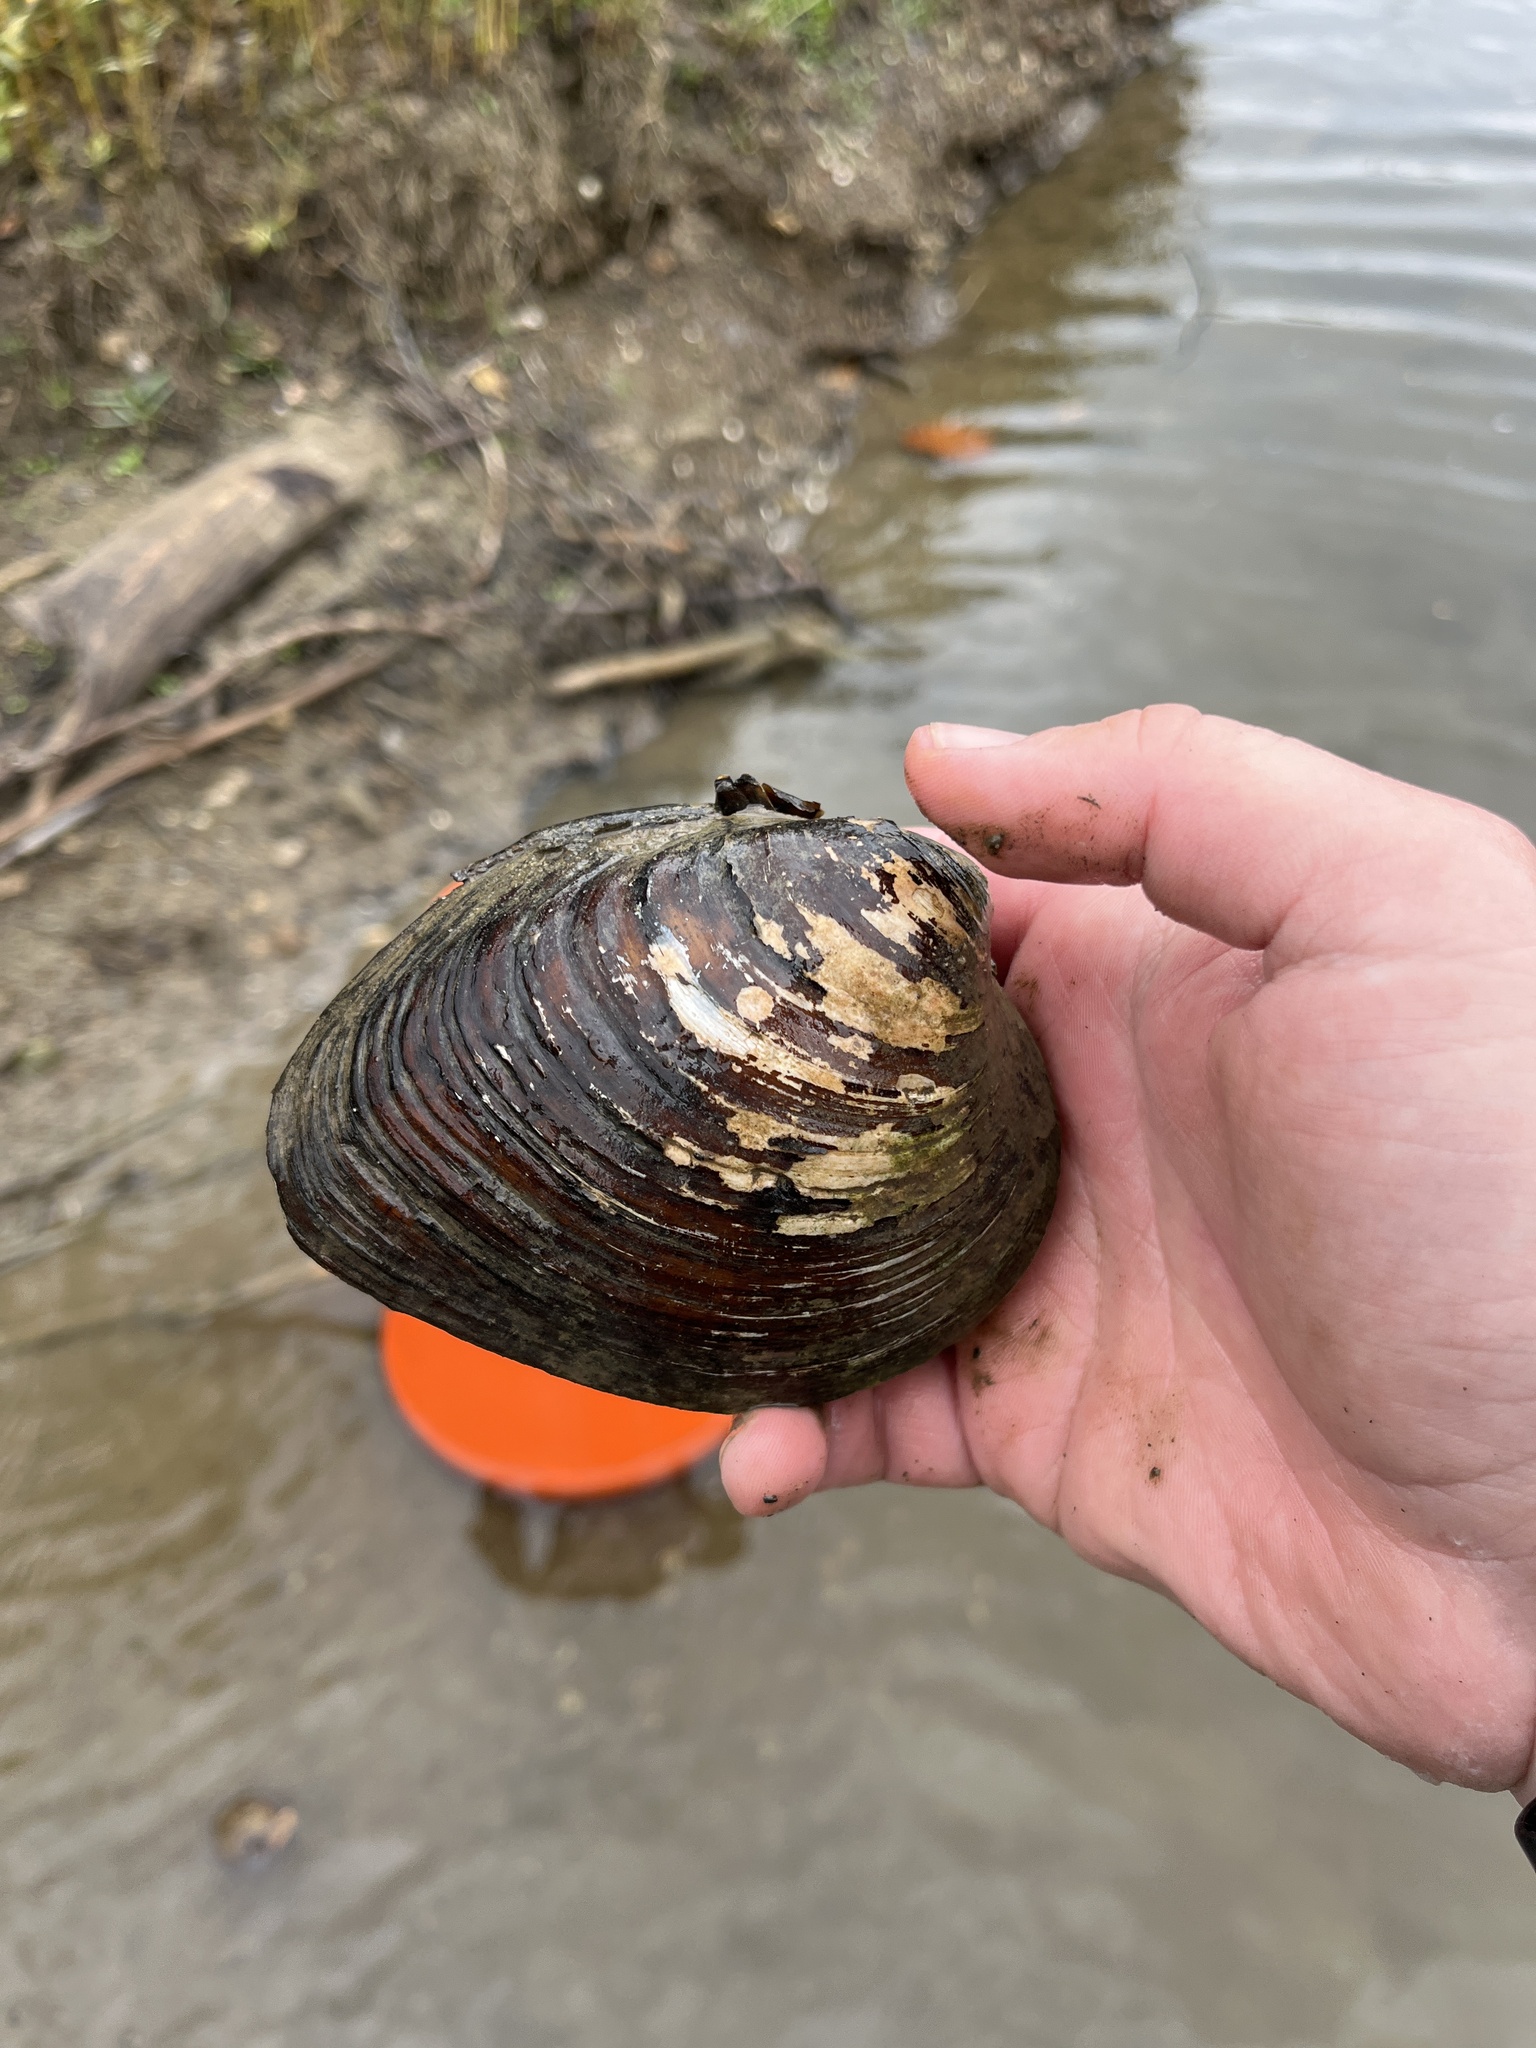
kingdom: Animalia
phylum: Mollusca
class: Bivalvia
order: Unionida
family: Unionidae
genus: Pleurobema
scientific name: Pleurobema sintoxia
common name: Round pigtoe
